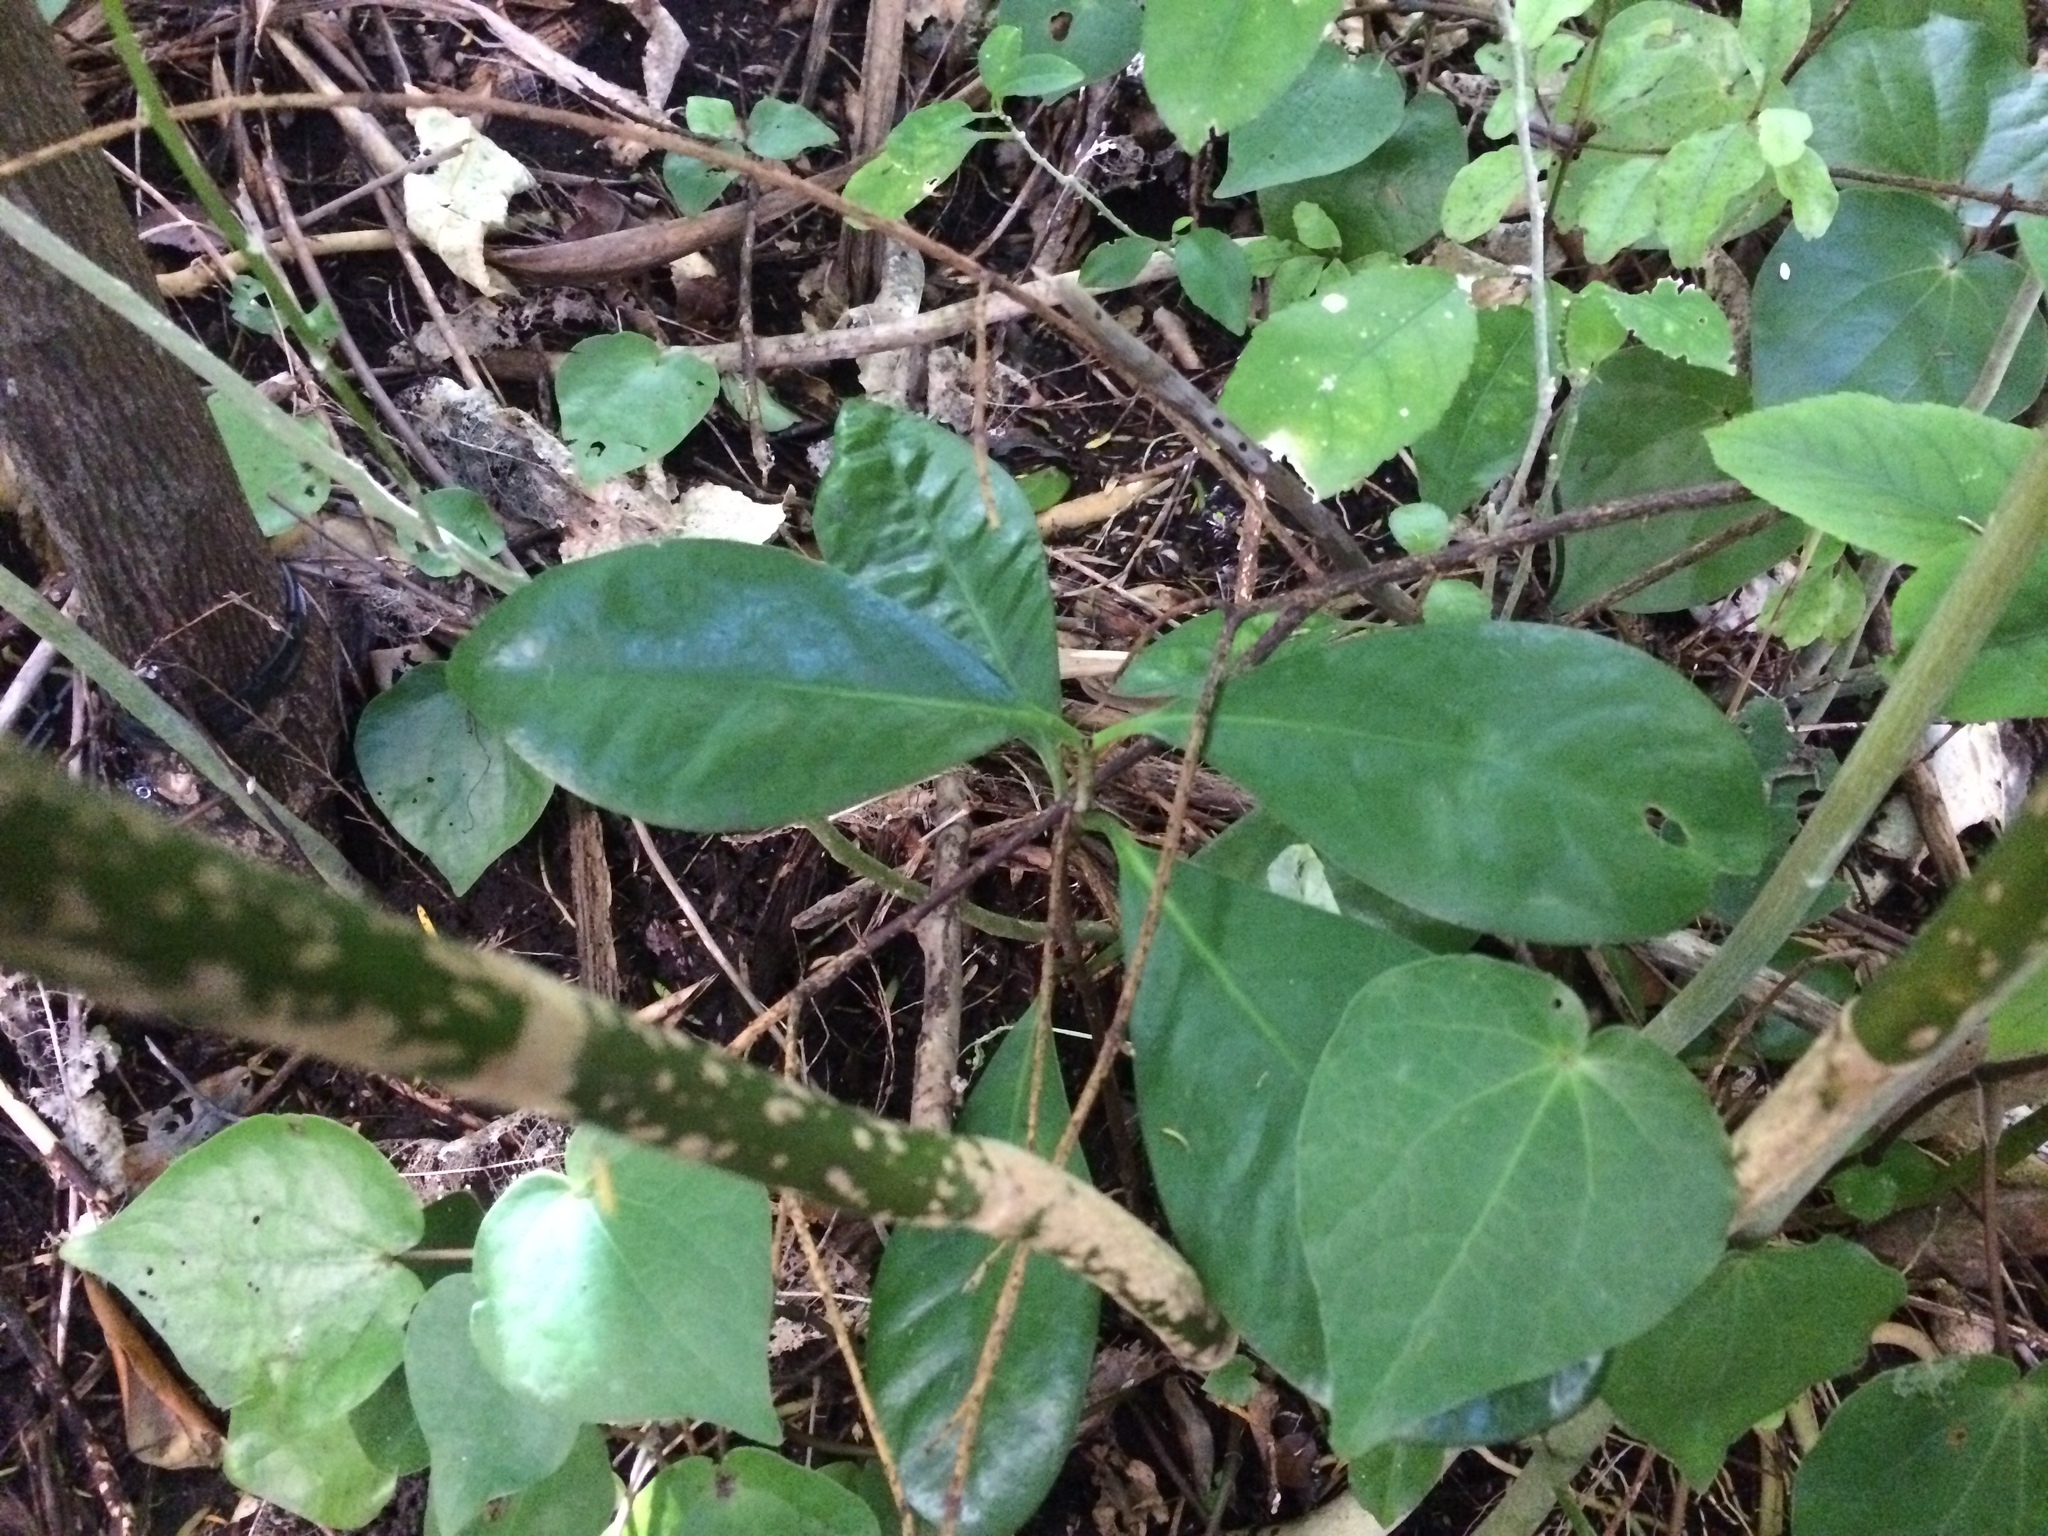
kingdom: Plantae
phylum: Tracheophyta
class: Magnoliopsida
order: Cucurbitales
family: Corynocarpaceae
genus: Corynocarpus
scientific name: Corynocarpus laevigatus
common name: New zealand laurel
